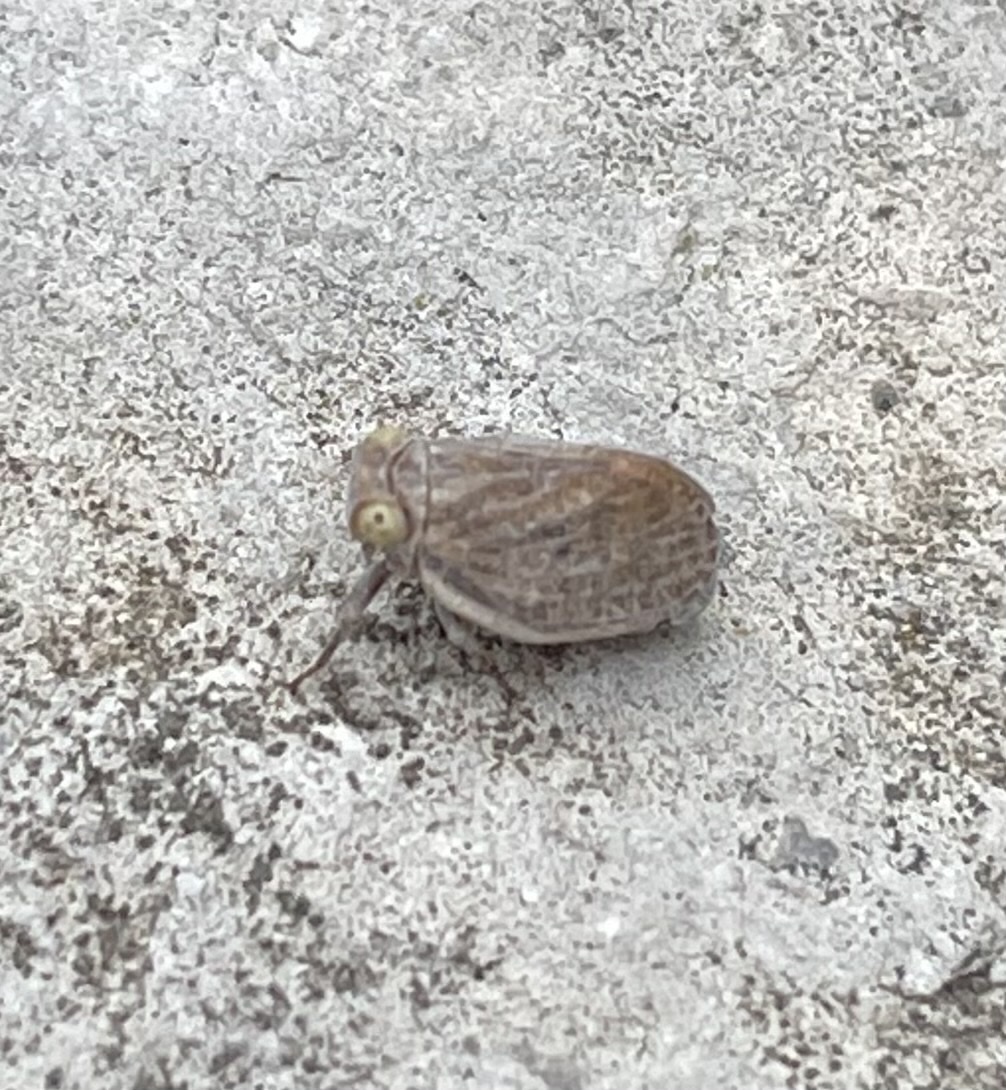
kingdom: Animalia
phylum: Arthropoda
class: Insecta
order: Hemiptera
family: Flatidae
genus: Metcalfa
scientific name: Metcalfa pruinosa
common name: Citrus flatid planthopper
